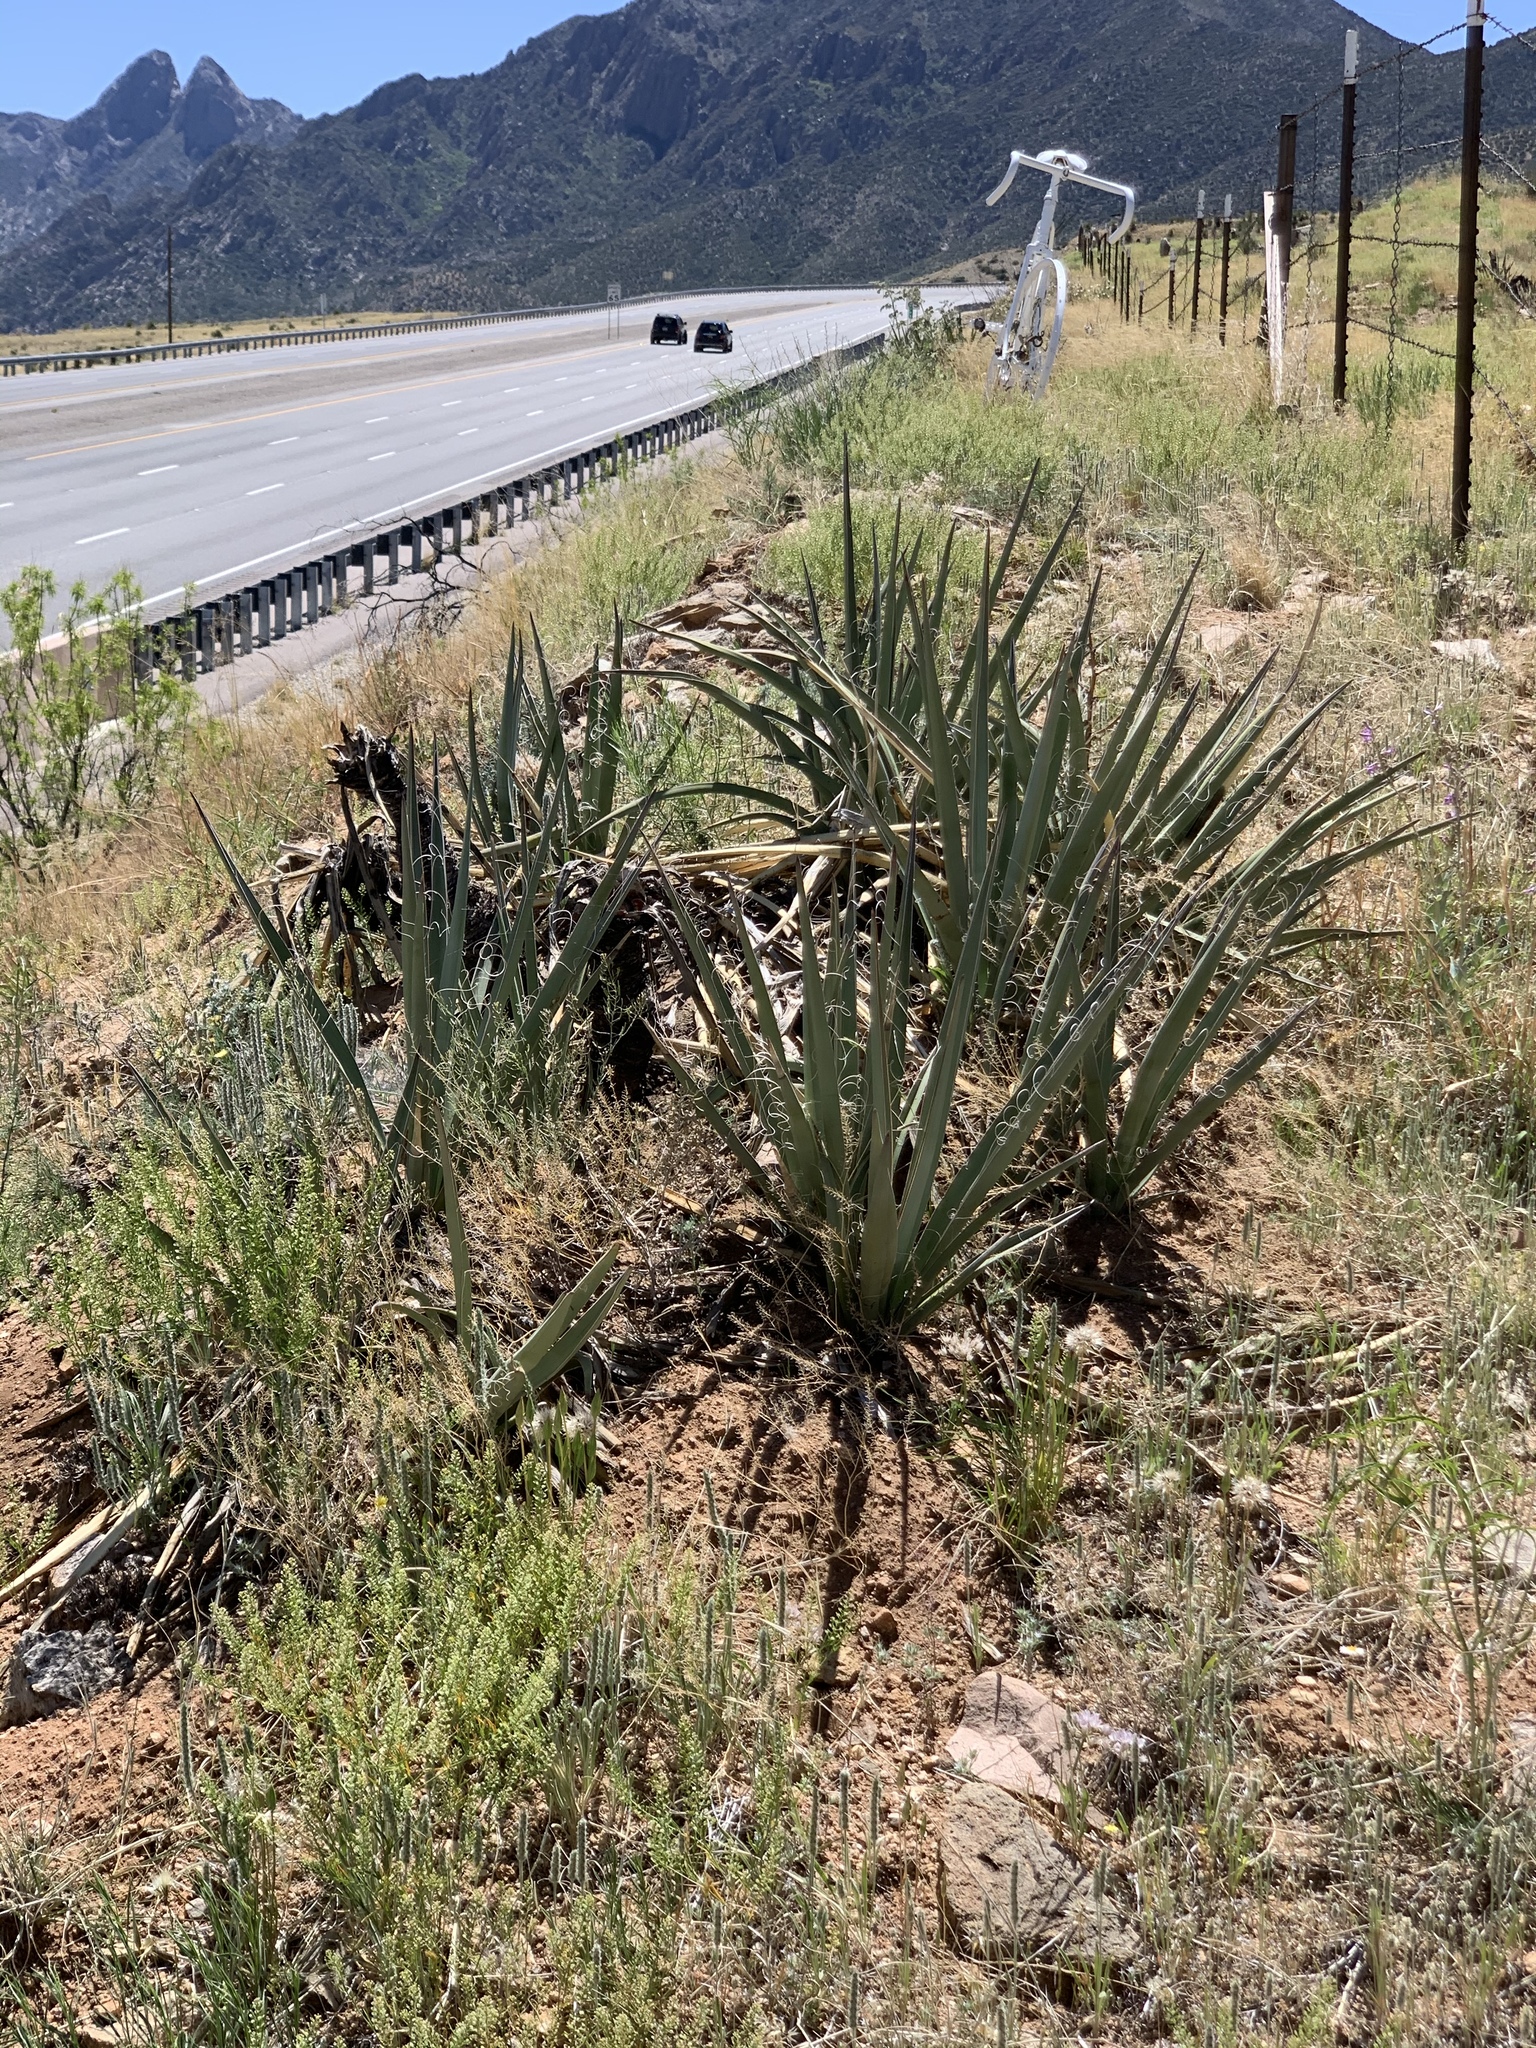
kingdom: Plantae
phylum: Tracheophyta
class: Liliopsida
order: Asparagales
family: Asparagaceae
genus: Yucca
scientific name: Yucca baccata
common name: Banana yucca
